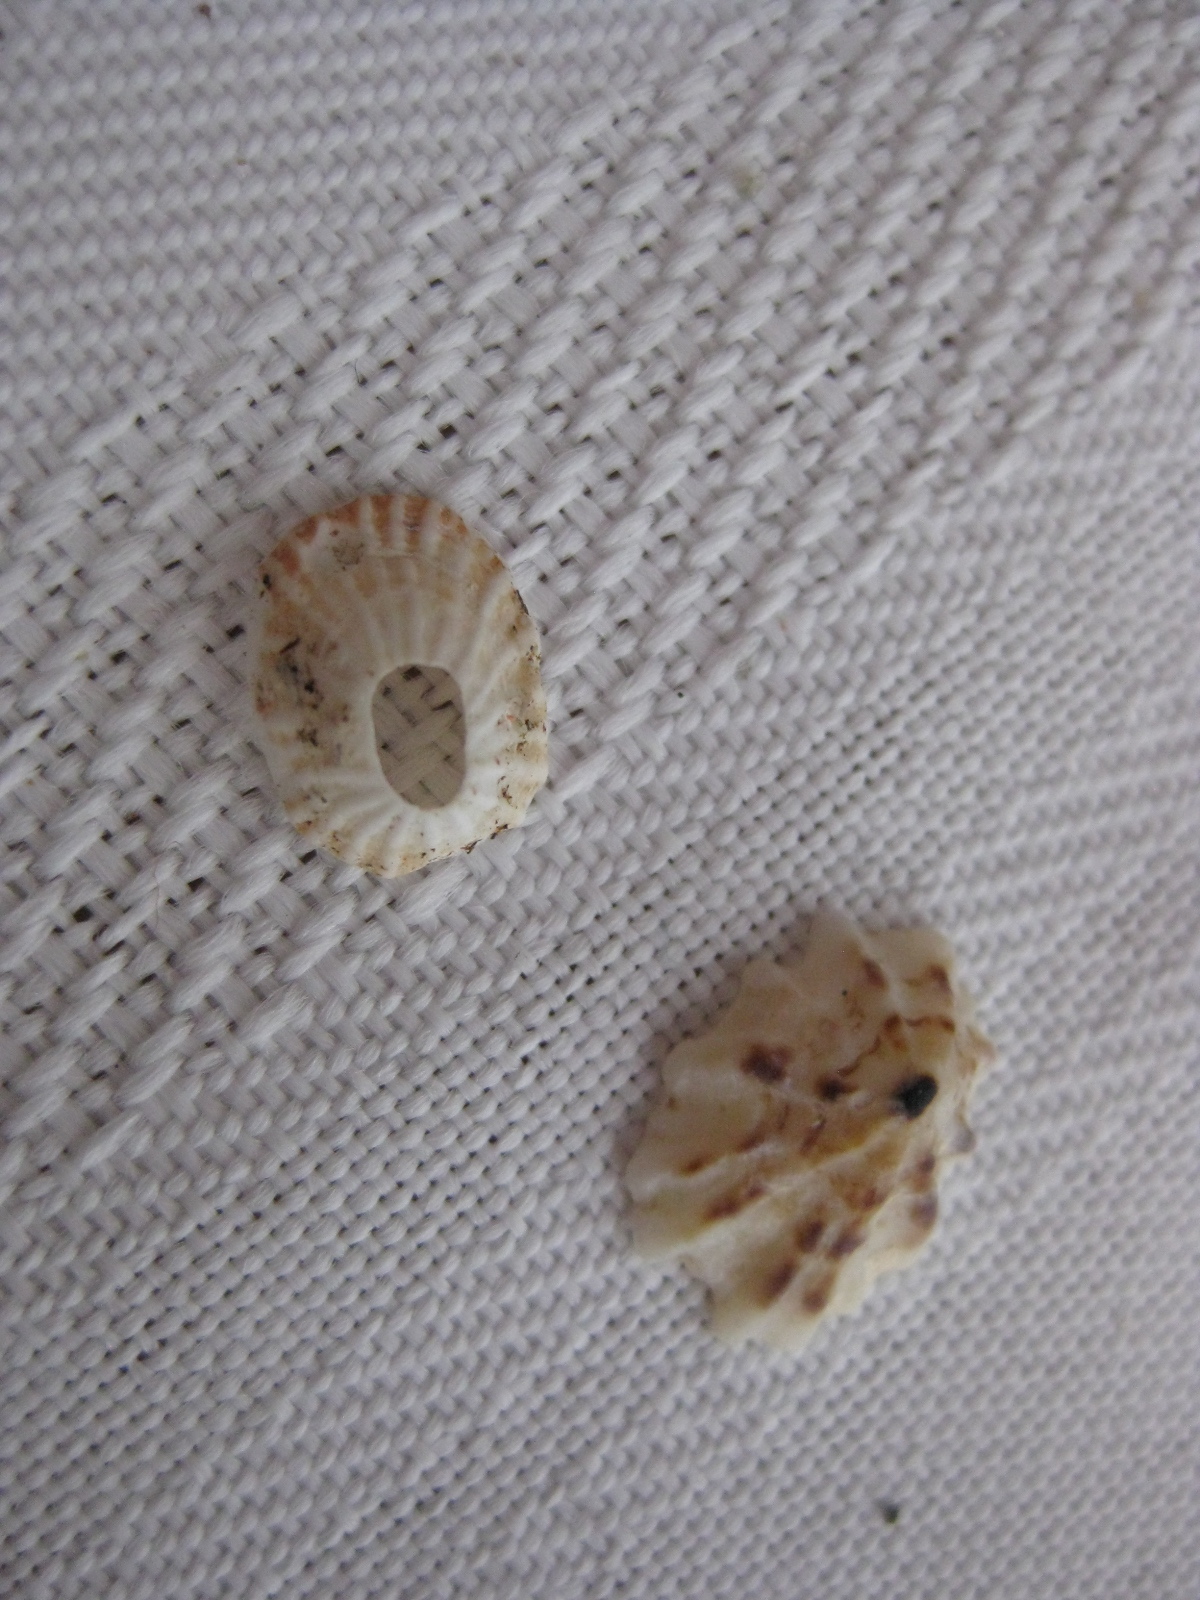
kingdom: Animalia
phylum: Mollusca
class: Gastropoda
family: Lottiidae
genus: Radiacmea
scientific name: Radiacmea inconspicua
